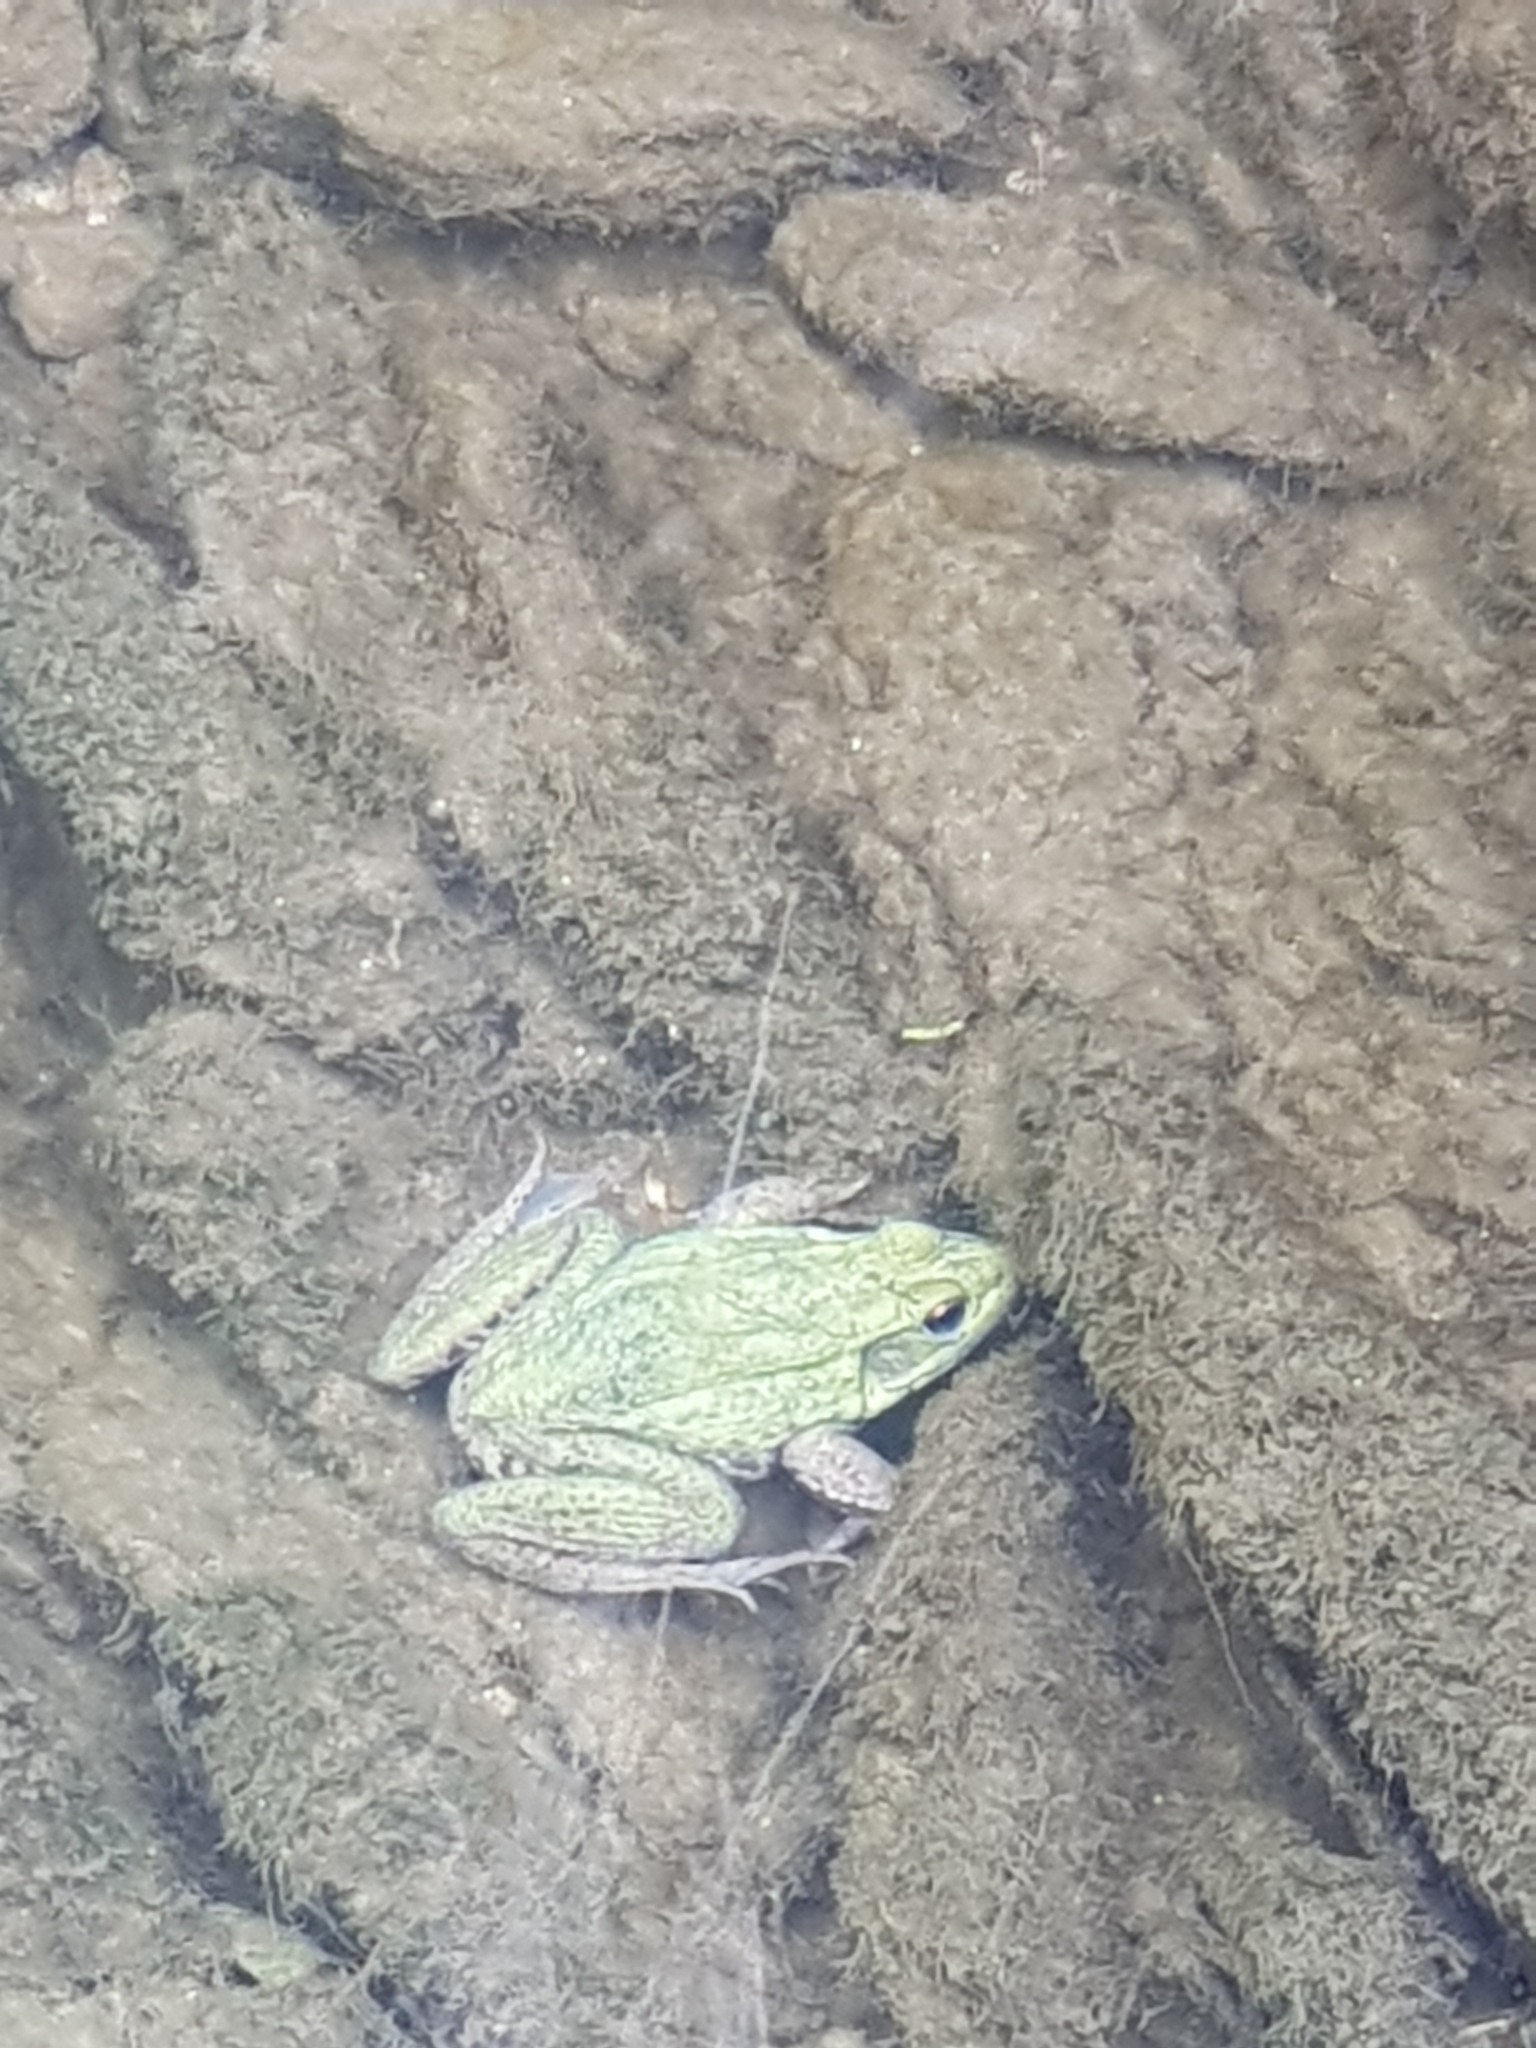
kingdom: Animalia
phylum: Chordata
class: Amphibia
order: Anura
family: Ranidae
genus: Lithobates
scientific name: Lithobates clamitans
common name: Green frog
